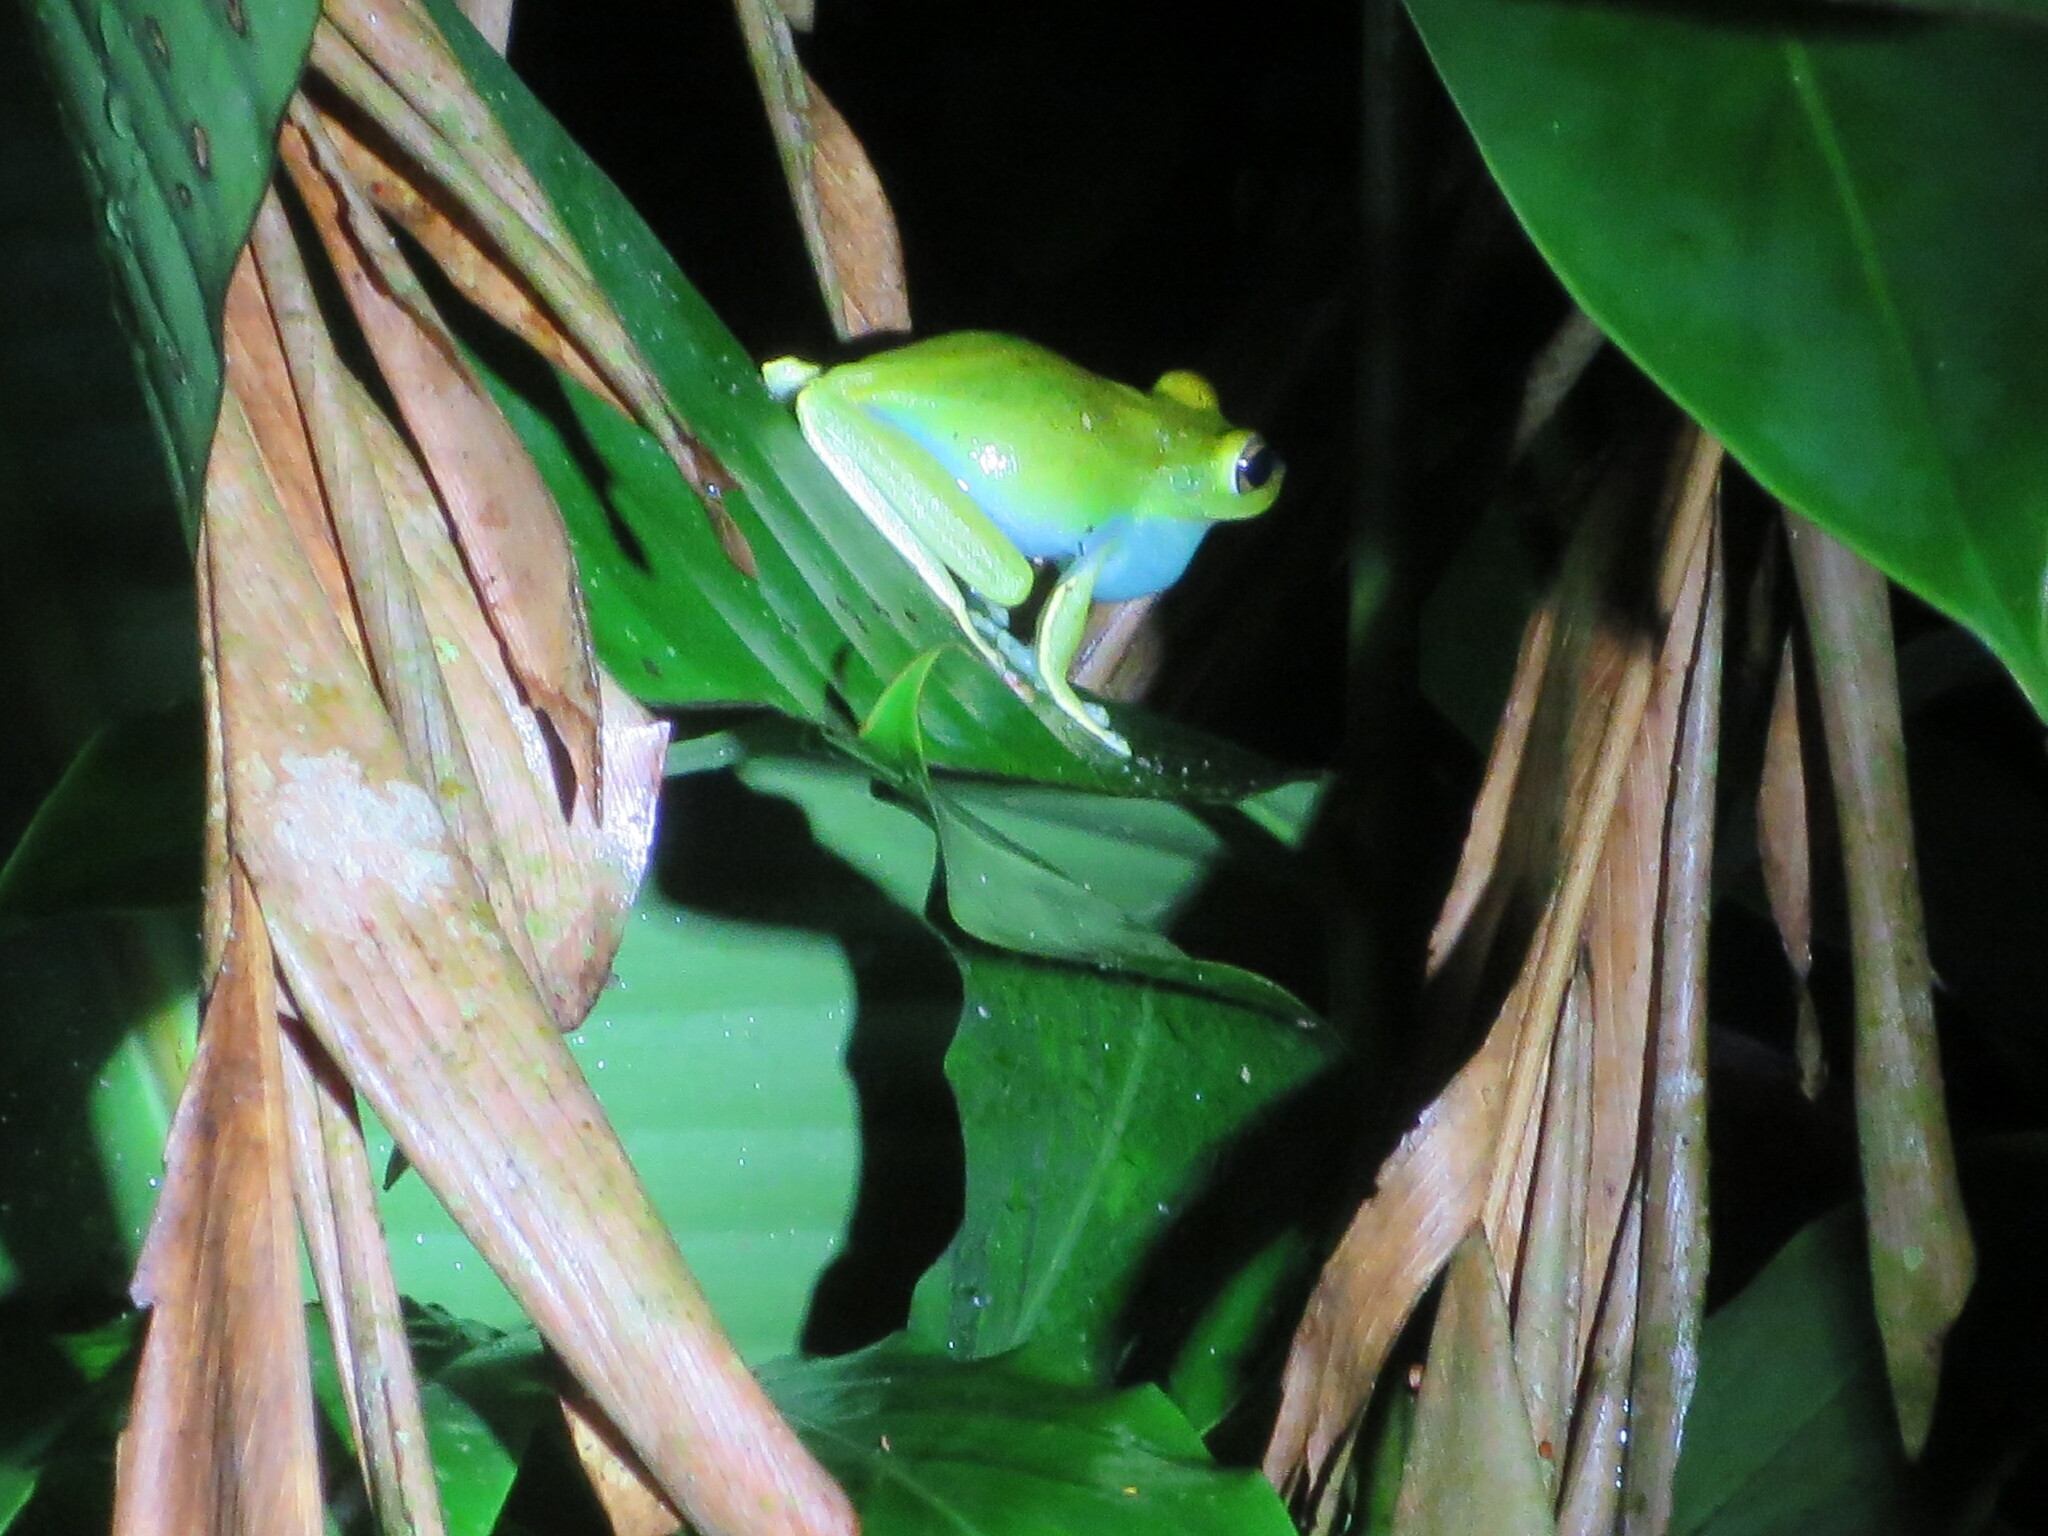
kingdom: Animalia
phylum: Chordata
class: Amphibia
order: Anura
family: Hylidae
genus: Boana
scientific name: Boana rufitela
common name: Canal zone treefrog
